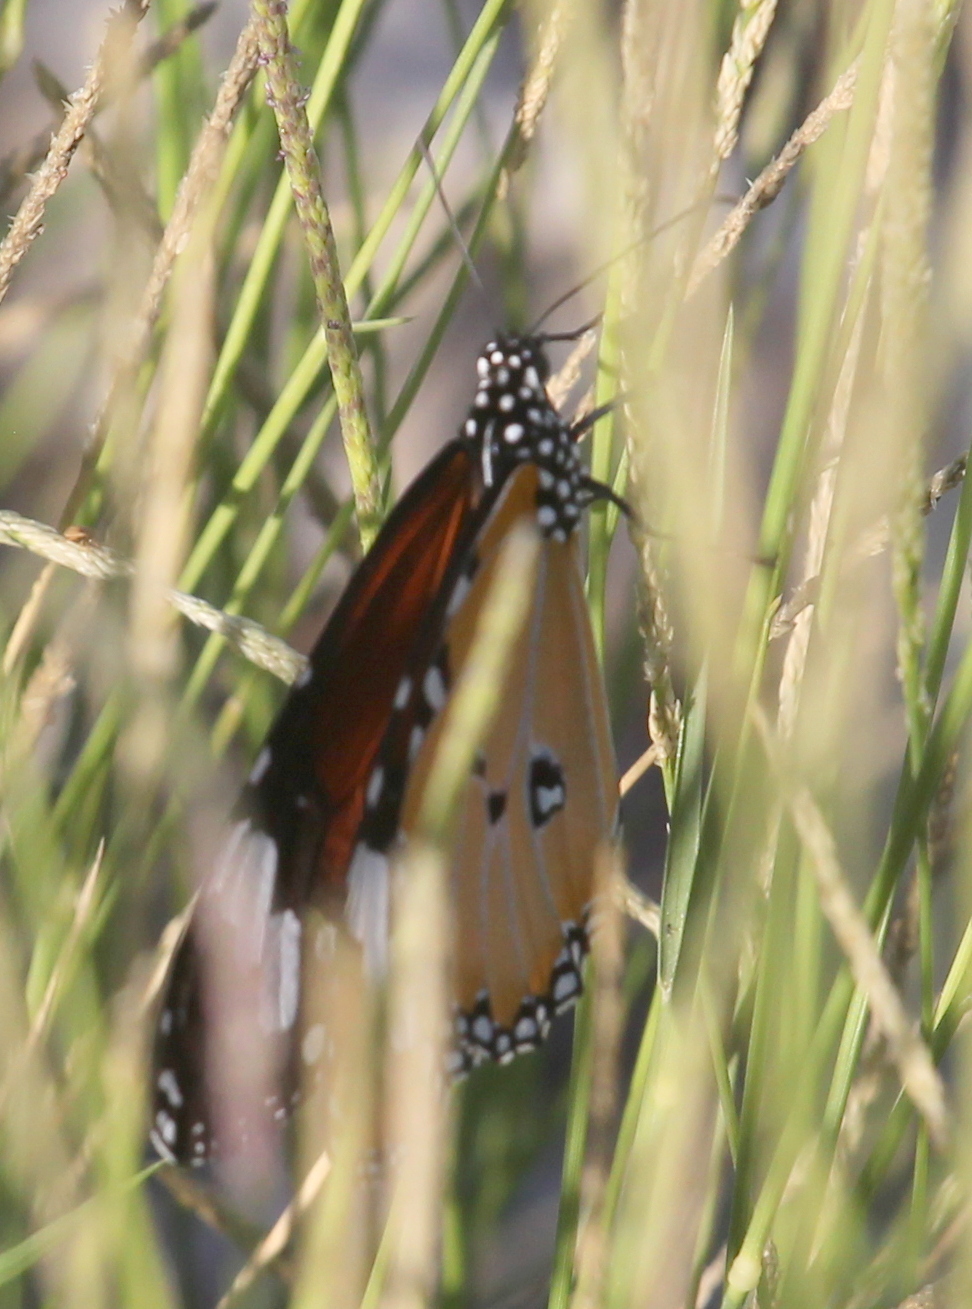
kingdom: Animalia
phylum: Arthropoda
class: Insecta
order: Lepidoptera
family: Nymphalidae
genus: Danaus
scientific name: Danaus chrysippus
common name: Plain tiger
